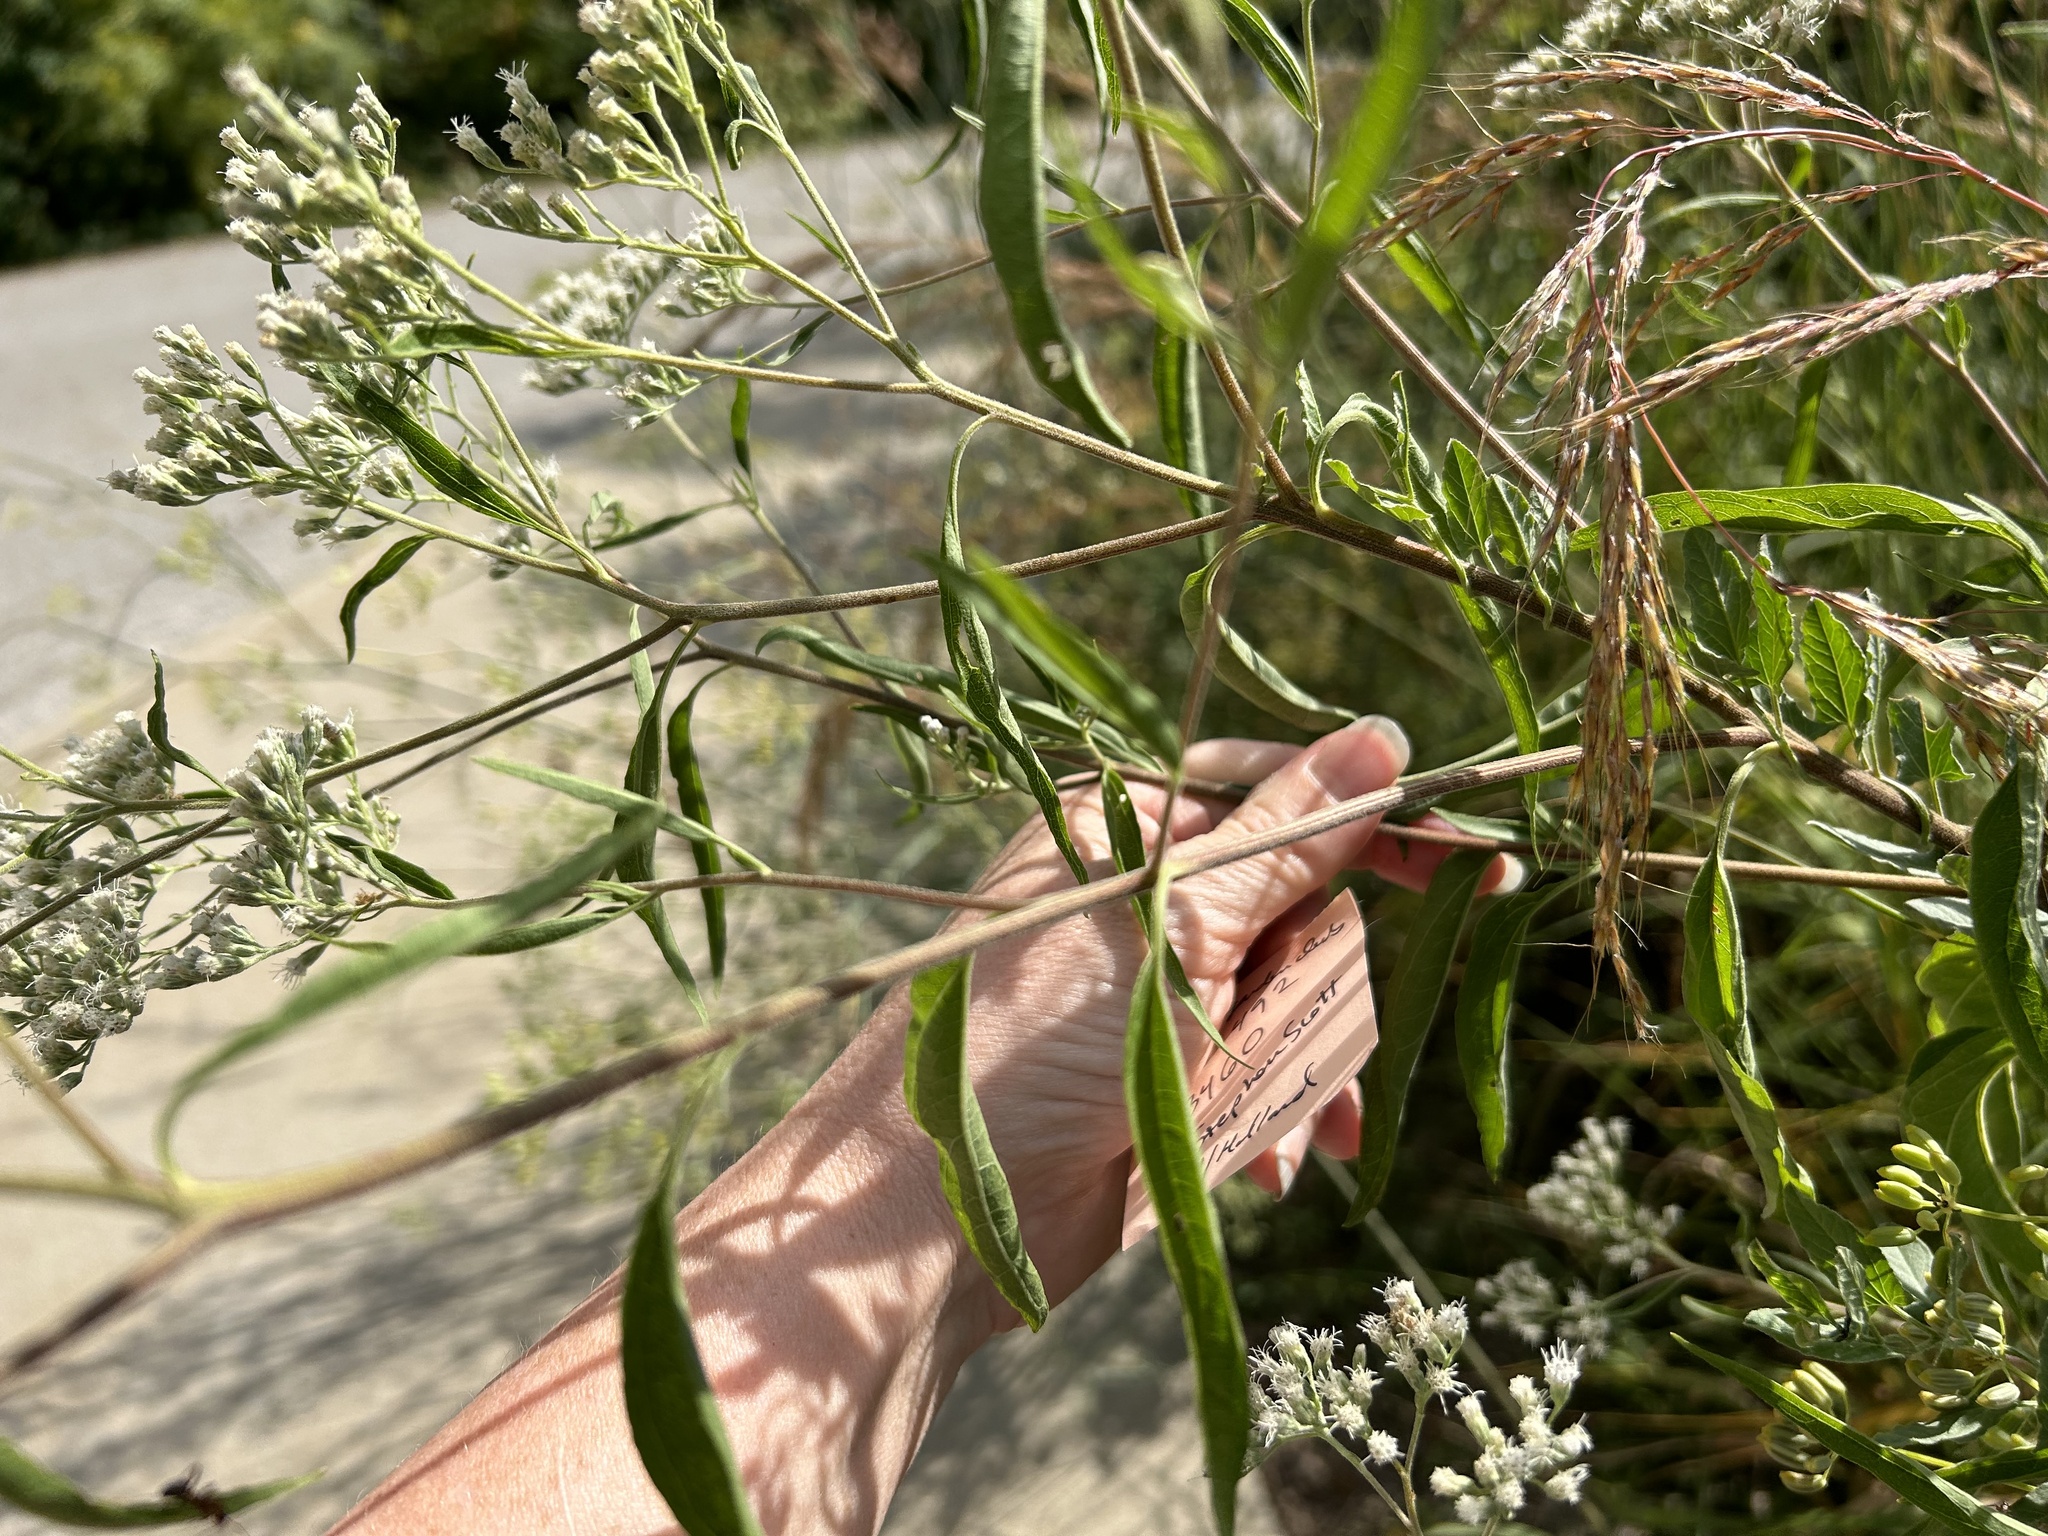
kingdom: Plantae
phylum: Tracheophyta
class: Magnoliopsida
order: Asterales
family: Asteraceae
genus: Eupatorium
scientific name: Eupatorium serotinum
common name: Late boneset
